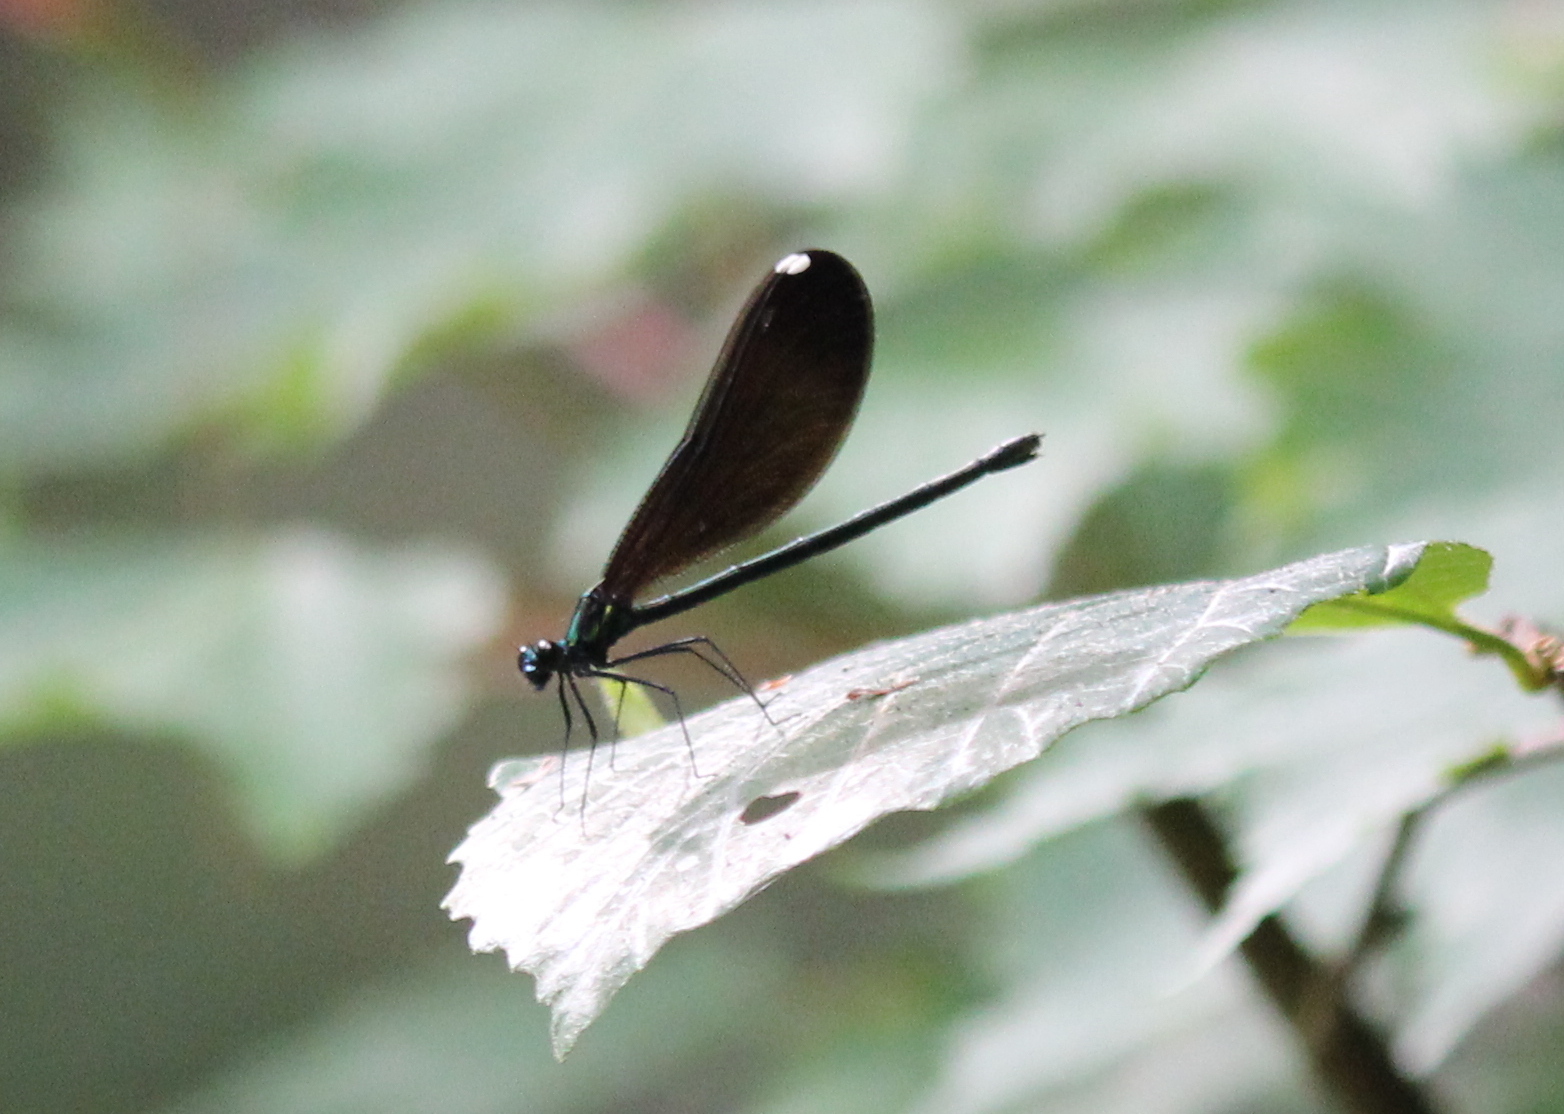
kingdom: Animalia
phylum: Arthropoda
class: Insecta
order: Odonata
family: Calopterygidae
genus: Calopteryx
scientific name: Calopteryx maculata
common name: Ebony jewelwing
